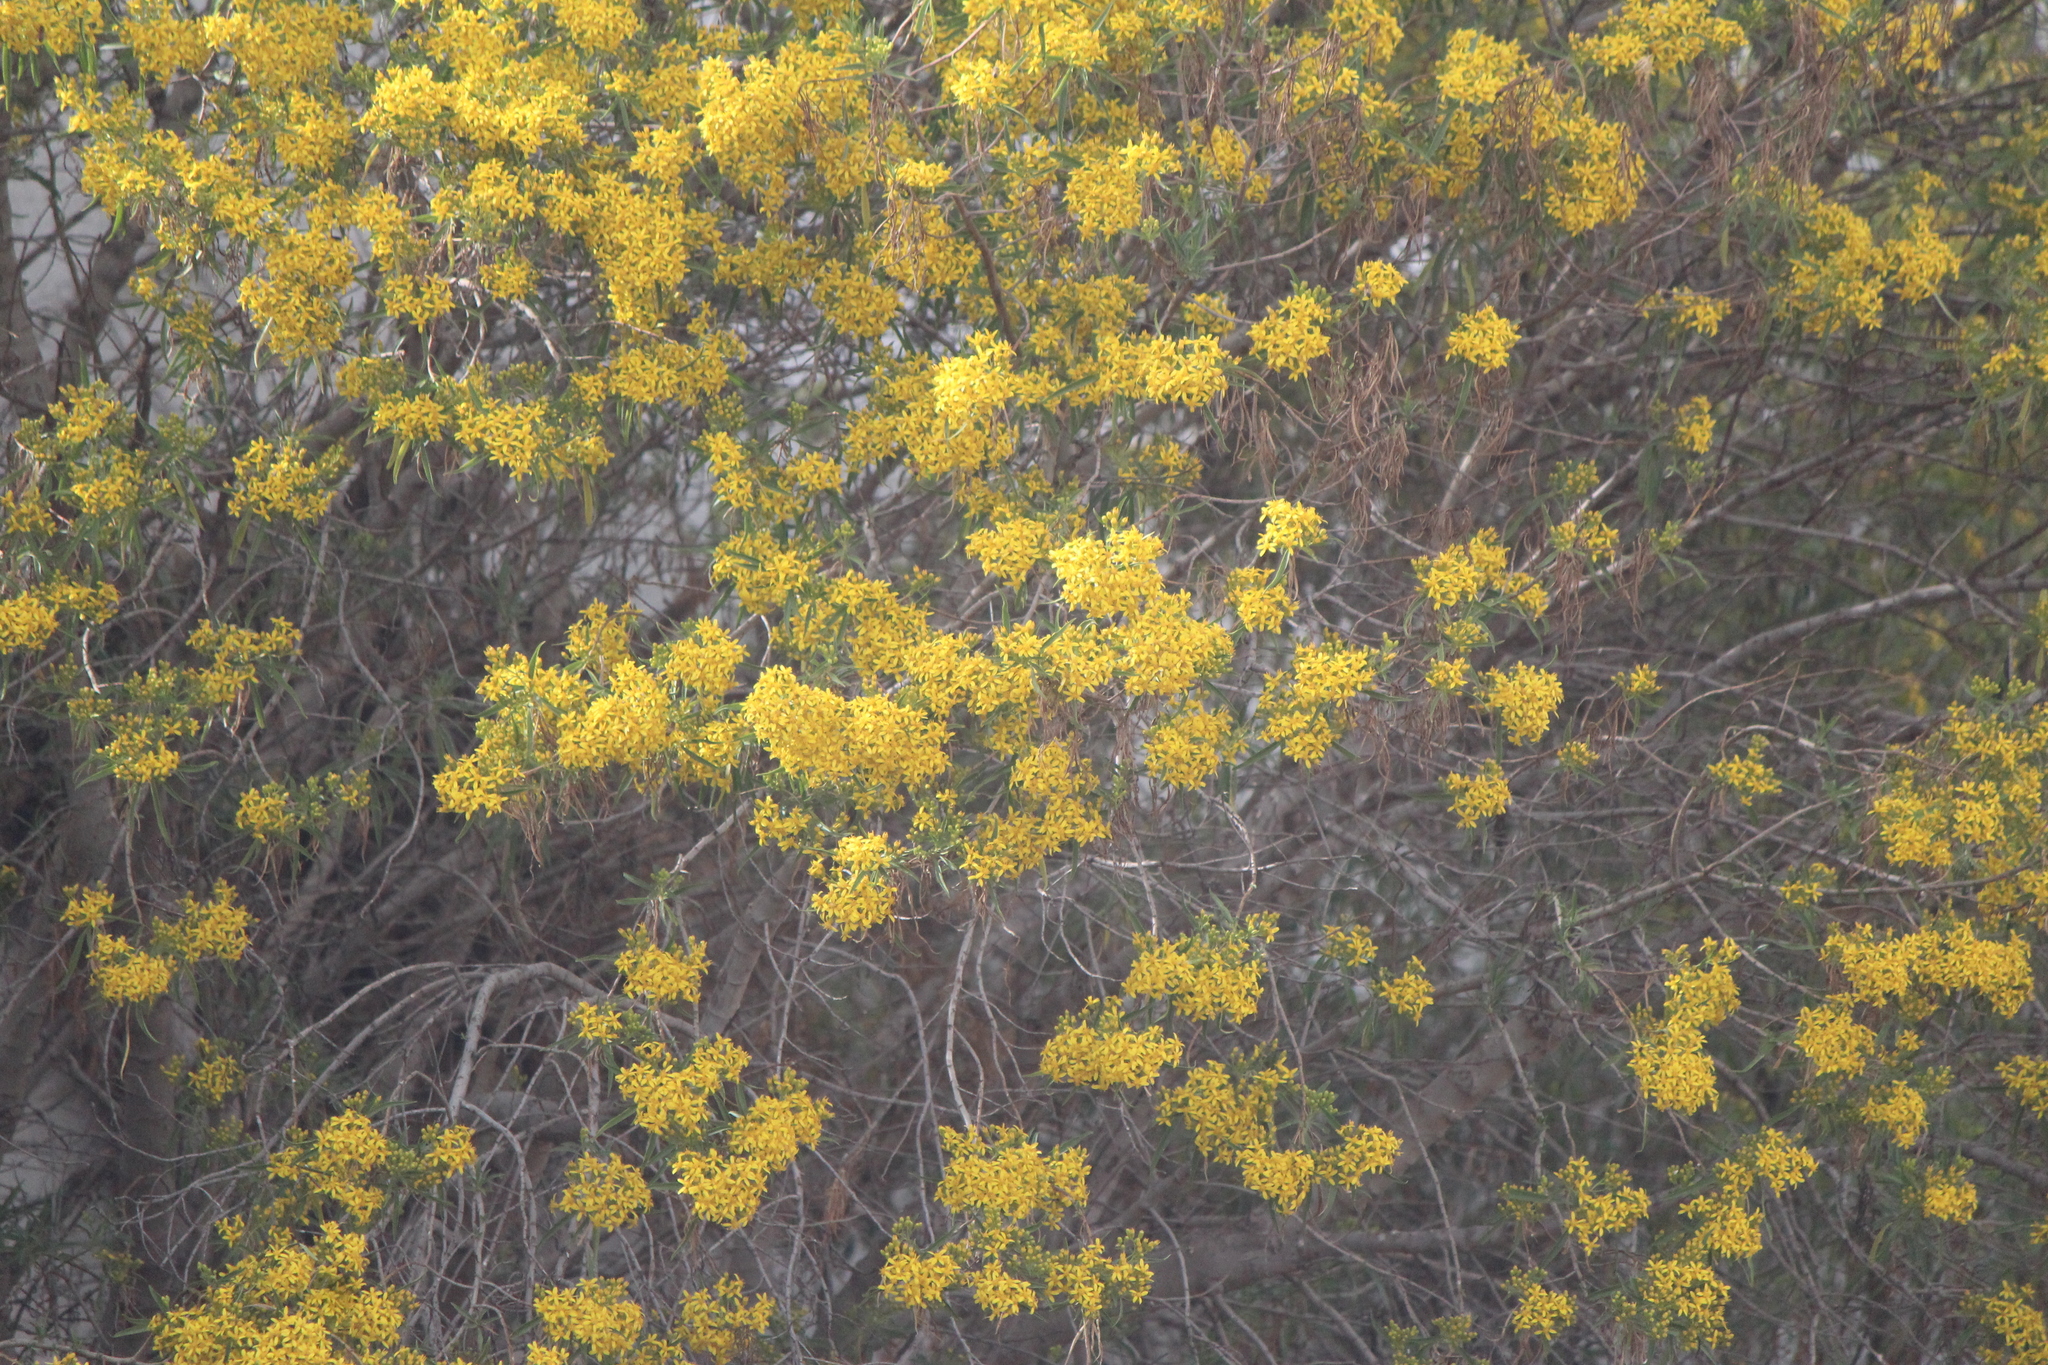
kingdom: Plantae
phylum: Tracheophyta
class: Magnoliopsida
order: Asterales
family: Asteraceae
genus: Barkleyanthus
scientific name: Barkleyanthus salicifolius
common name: Willow ragwort
